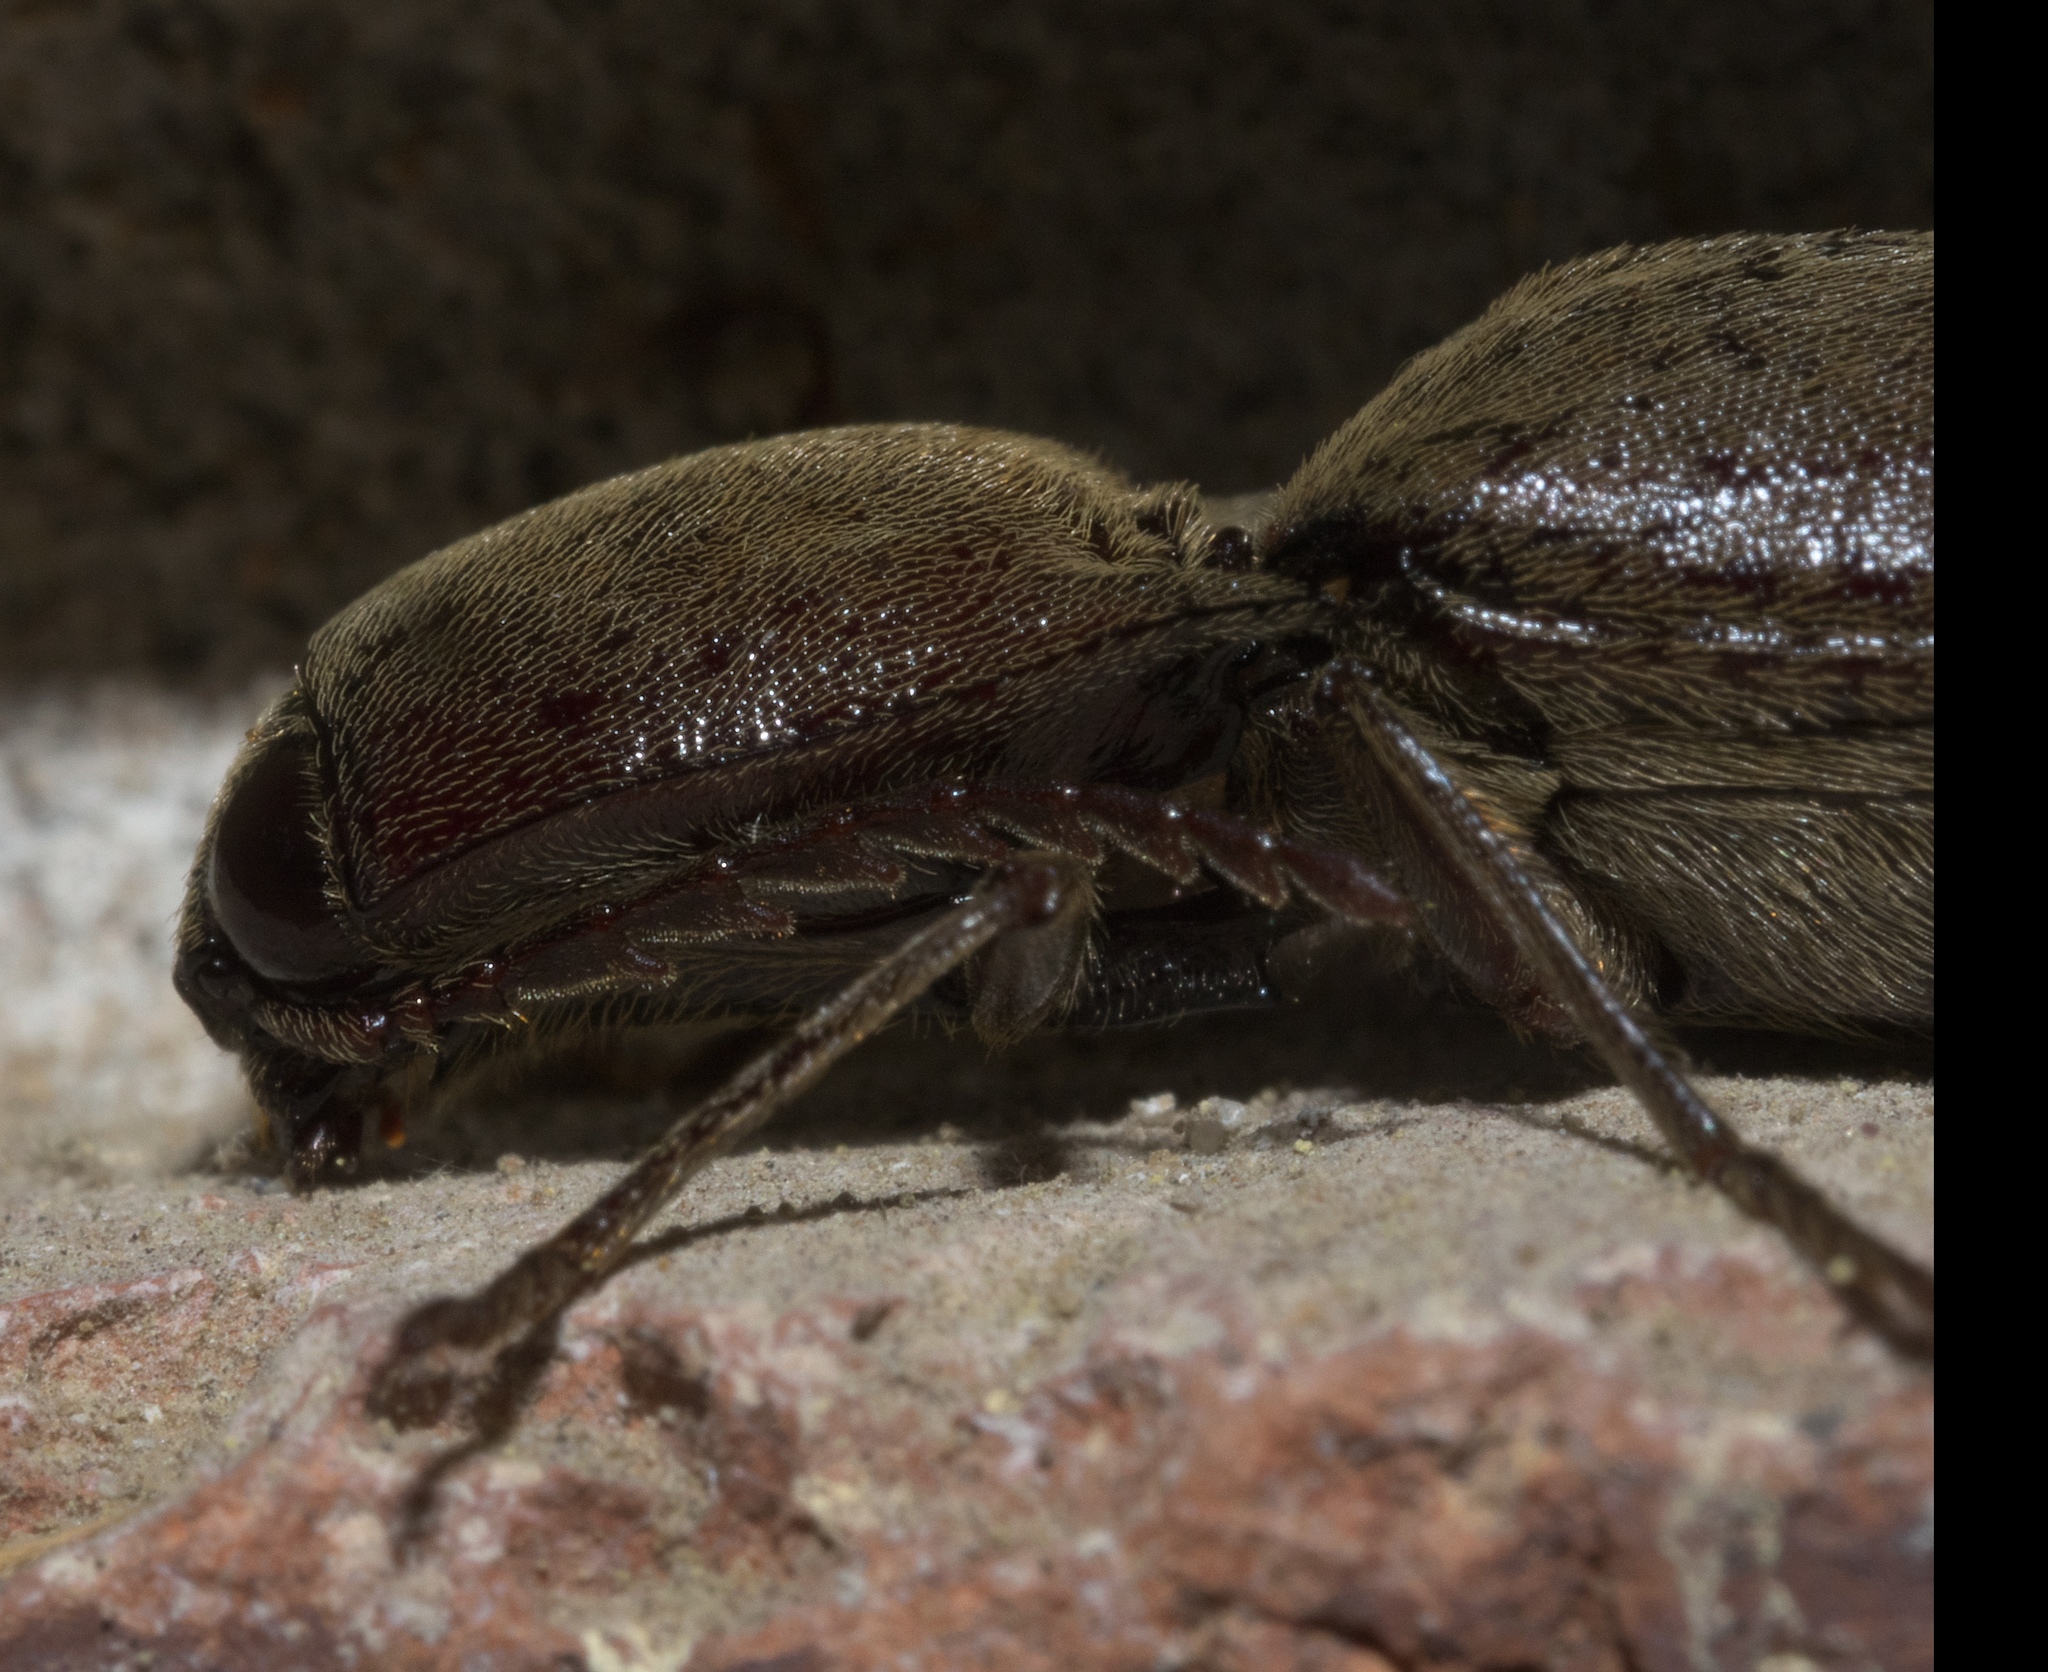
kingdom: Animalia
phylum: Arthropoda
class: Insecta
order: Coleoptera
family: Elateridae
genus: Orthostethus
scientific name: Orthostethus infuscatus
